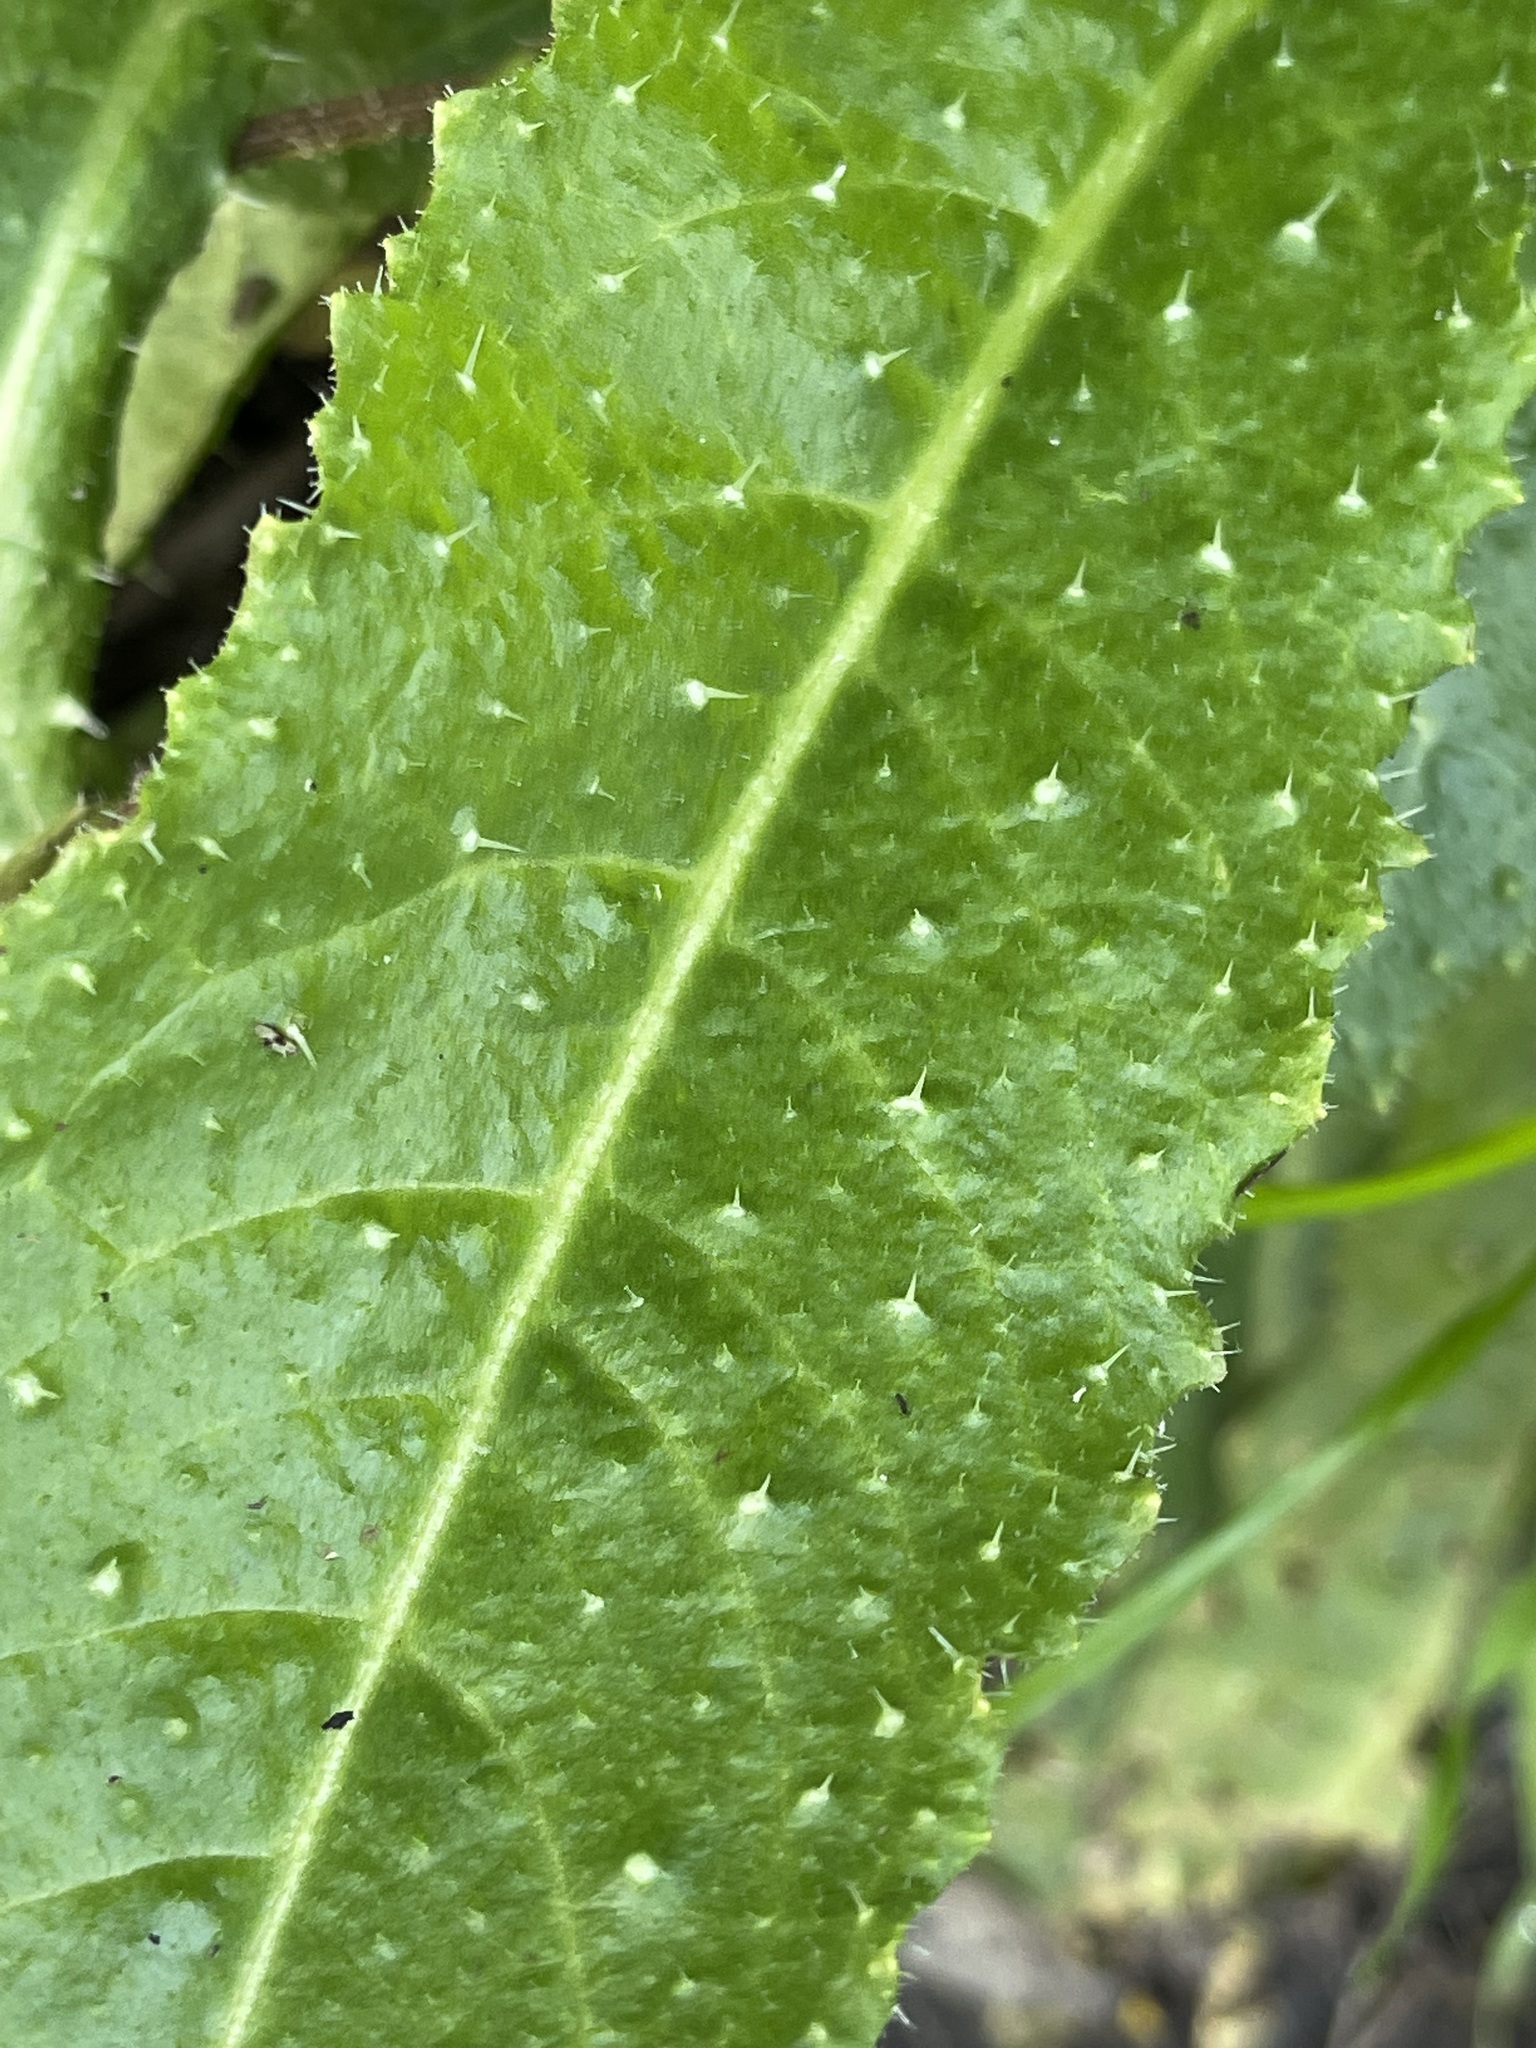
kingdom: Plantae
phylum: Tracheophyta
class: Magnoliopsida
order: Asterales
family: Asteraceae
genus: Helminthotheca
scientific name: Helminthotheca echioides
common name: Ox-tongue
